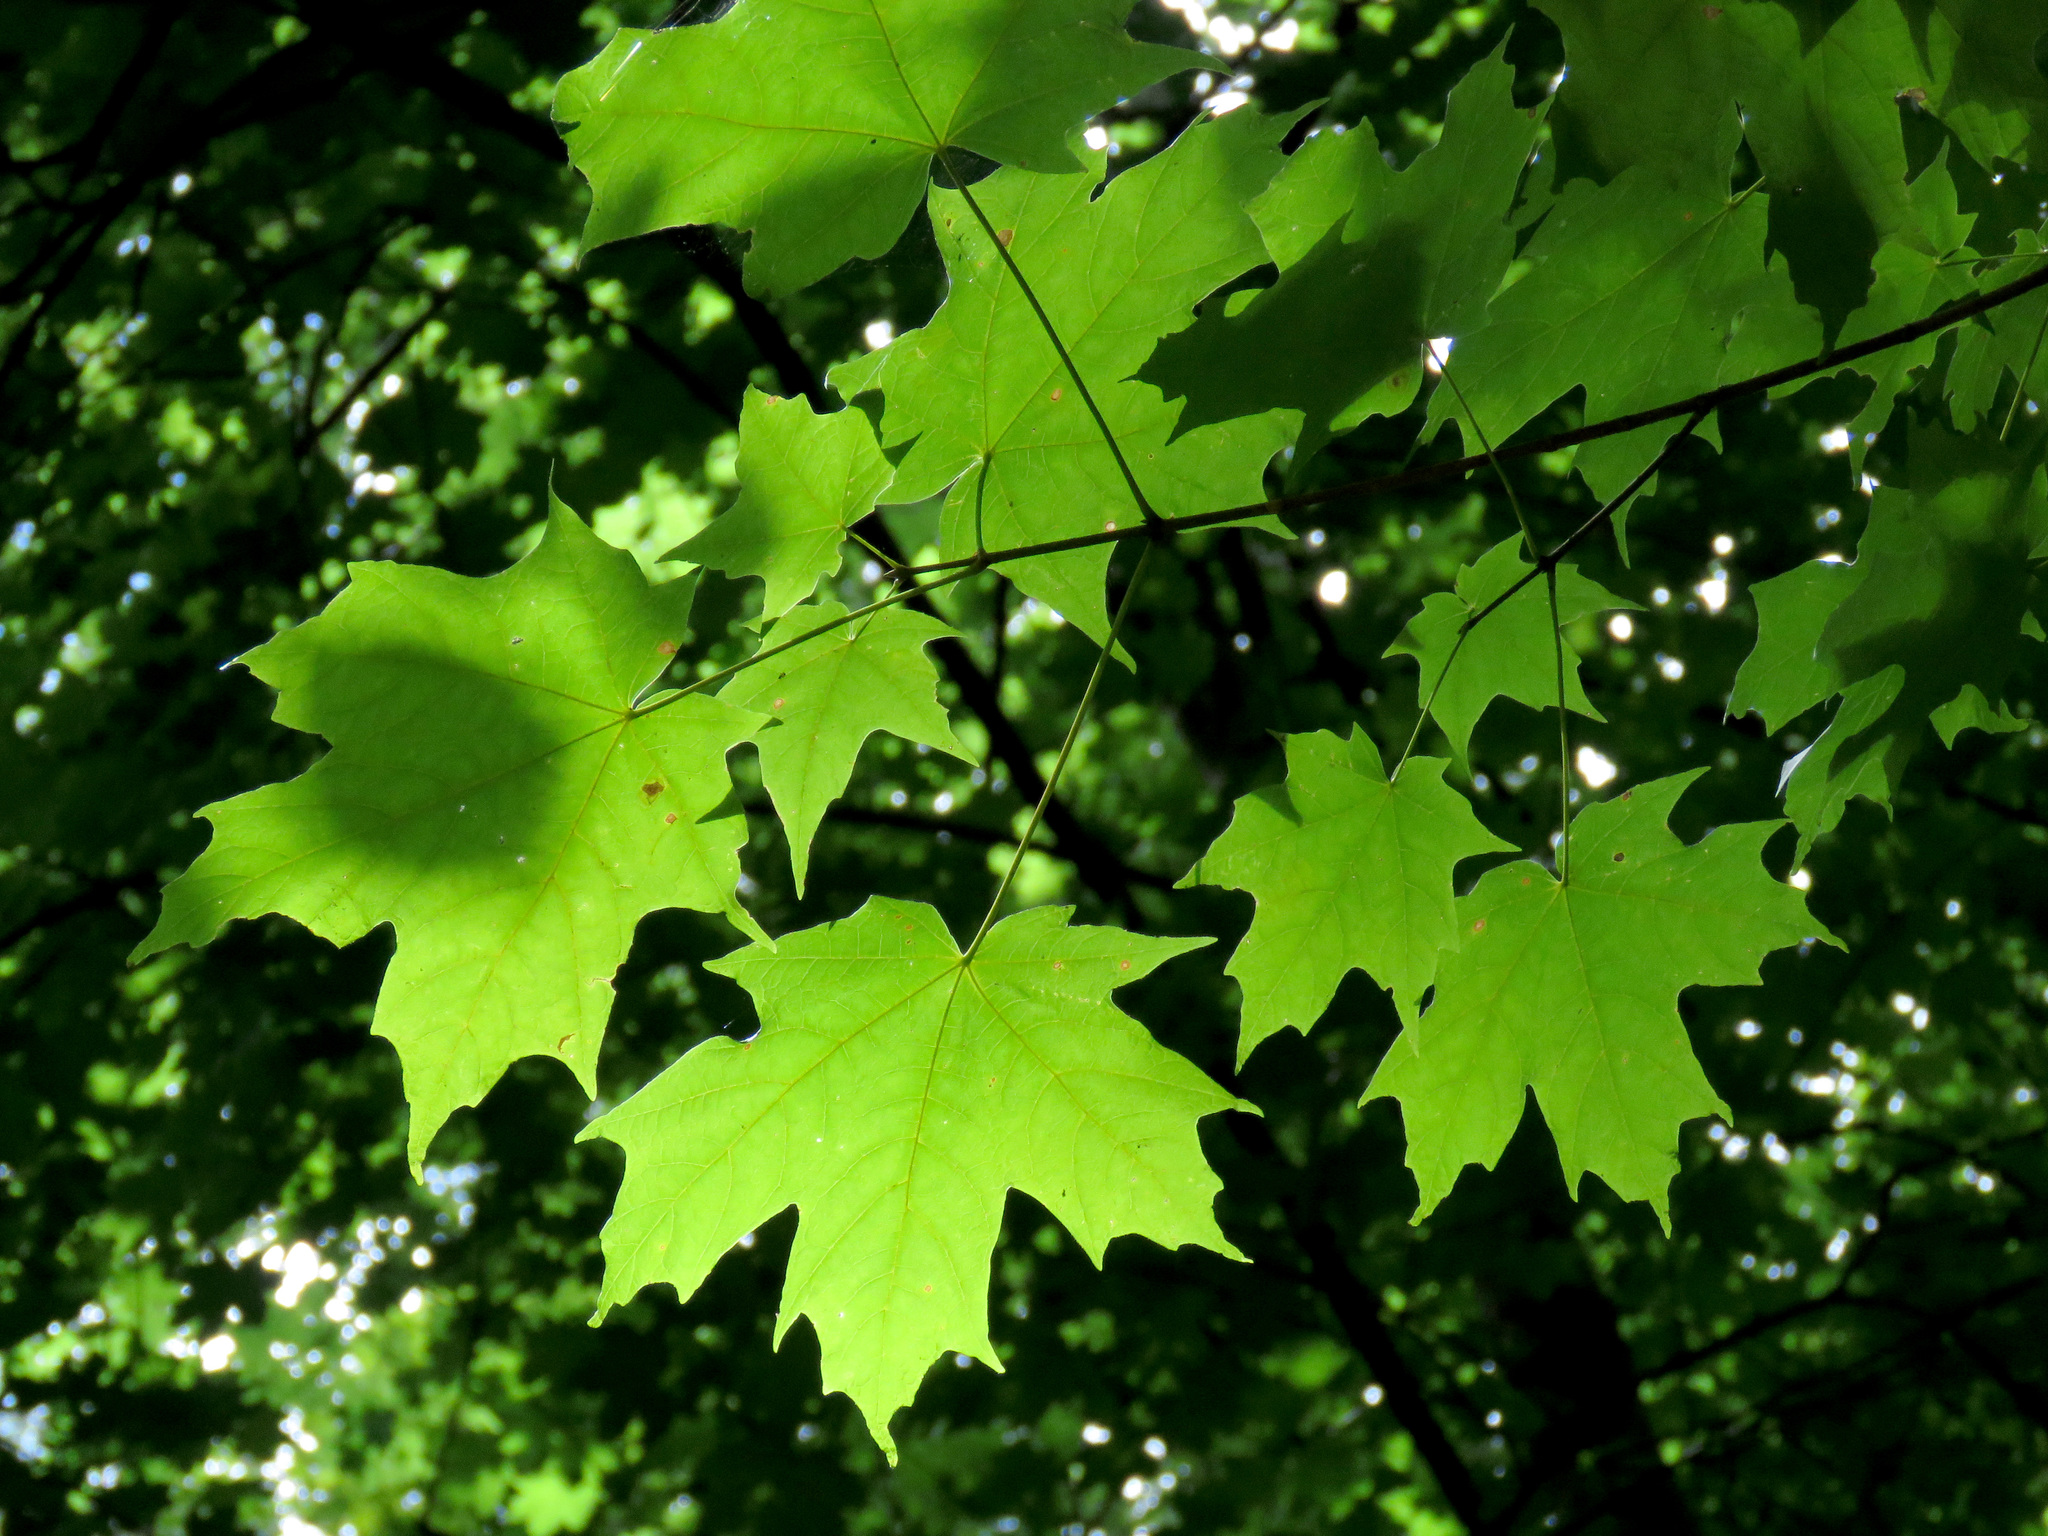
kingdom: Plantae
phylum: Tracheophyta
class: Magnoliopsida
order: Sapindales
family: Sapindaceae
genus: Acer
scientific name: Acer saccharum
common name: Sugar maple
